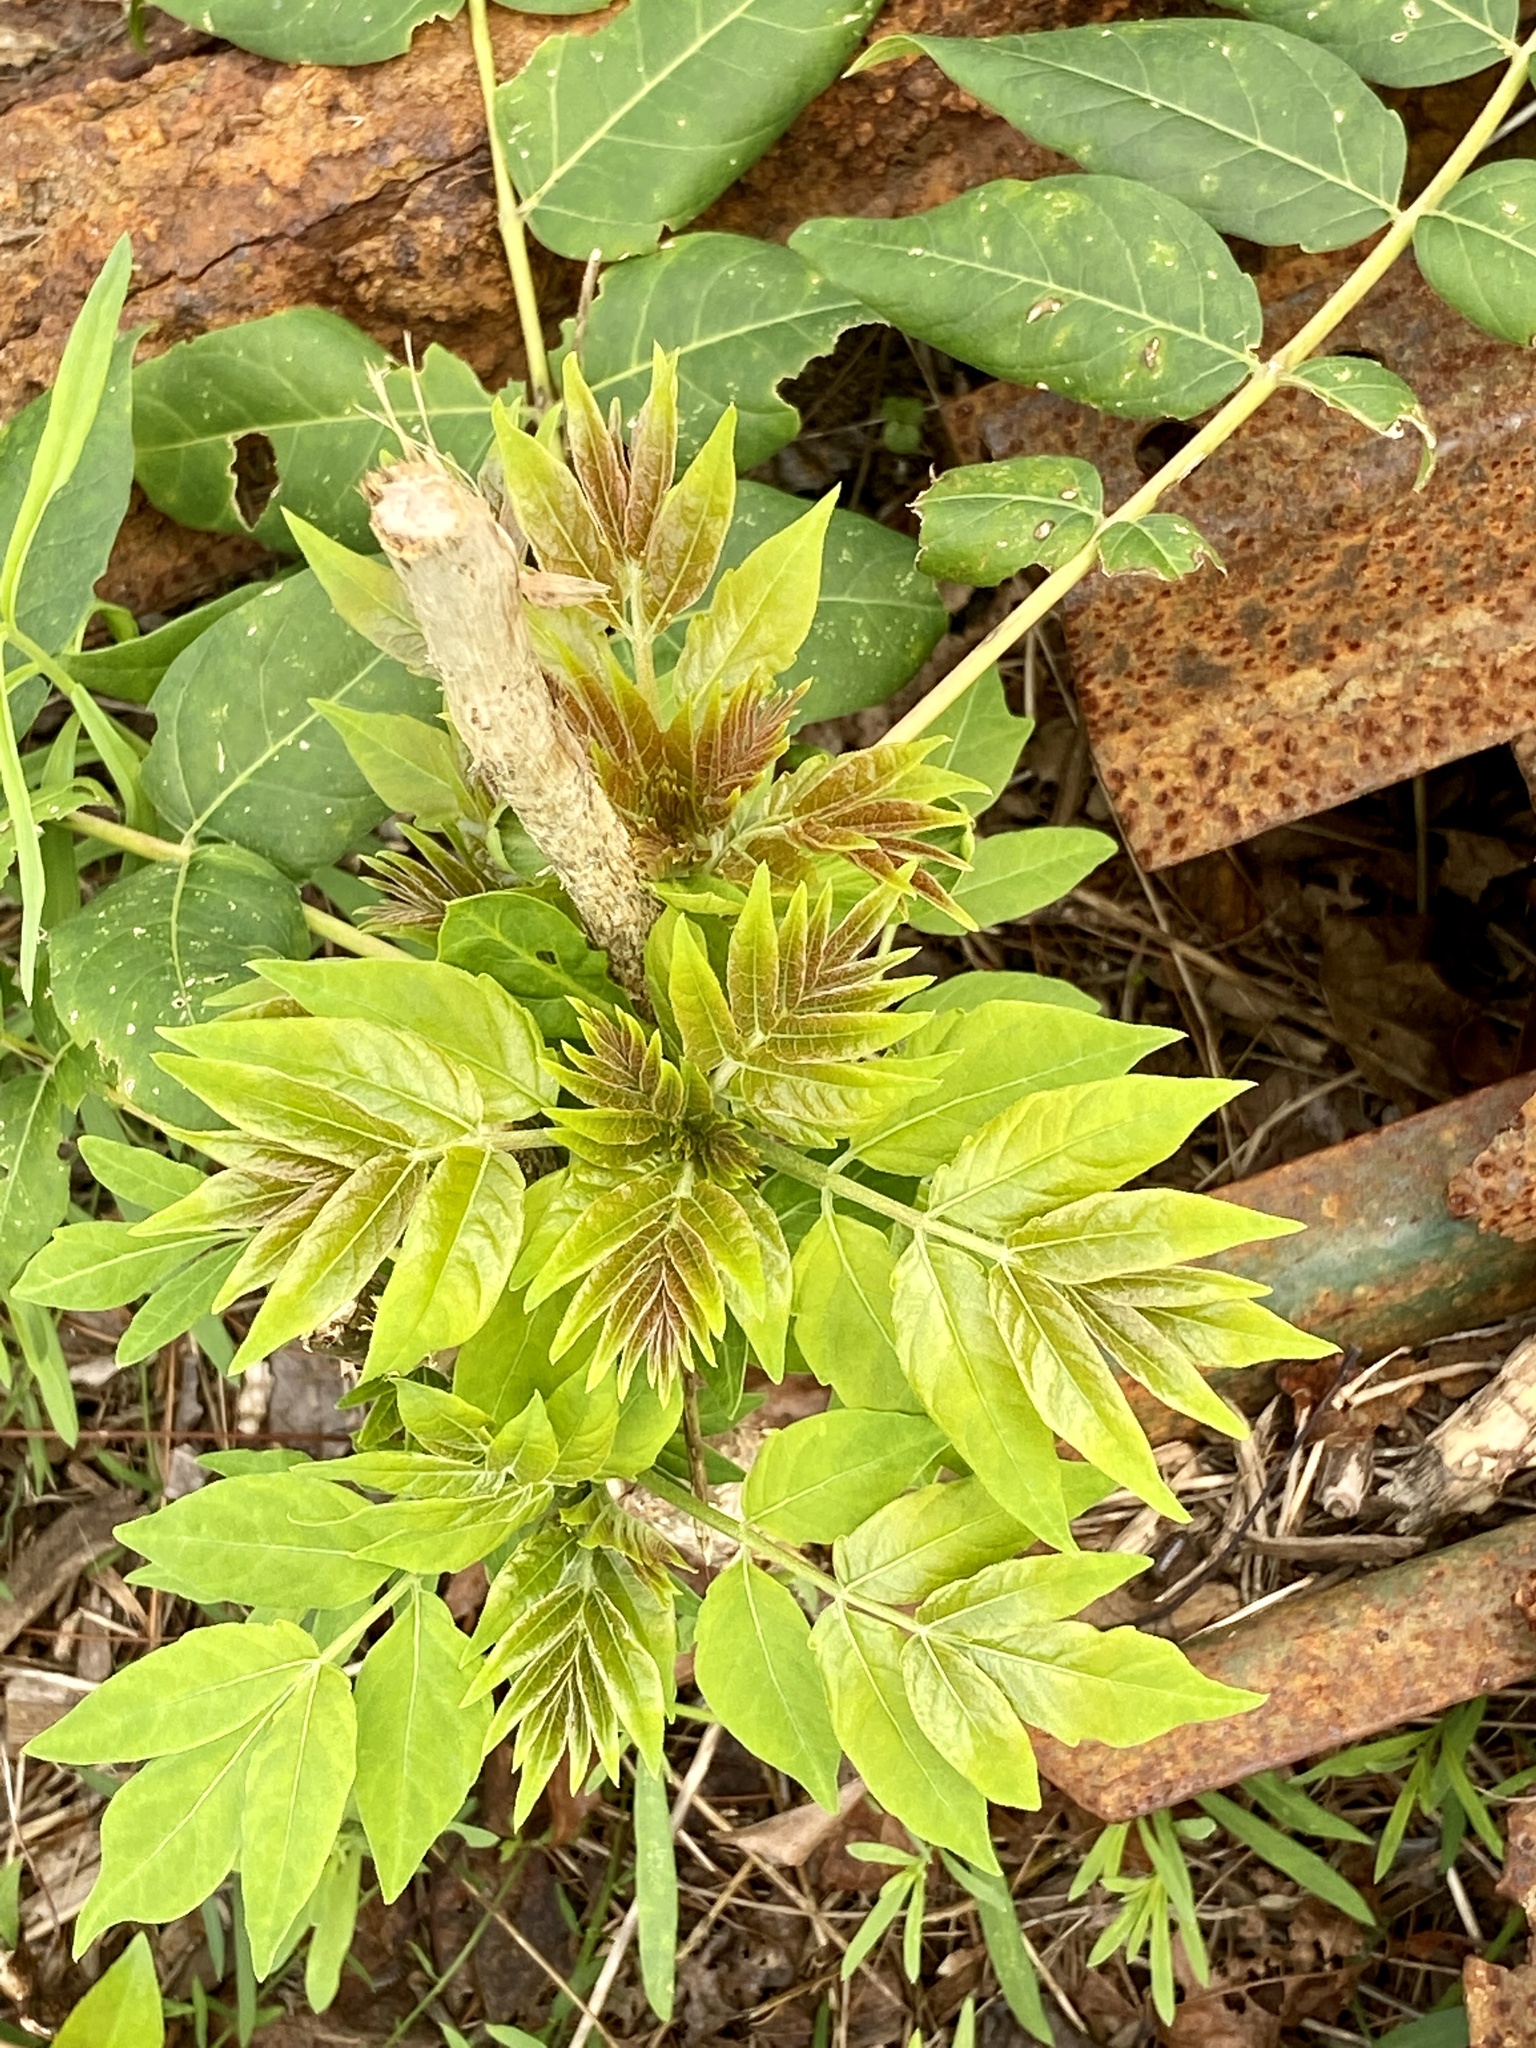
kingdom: Plantae
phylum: Tracheophyta
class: Magnoliopsida
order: Sapindales
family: Simaroubaceae
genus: Ailanthus
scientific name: Ailanthus altissima
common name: Tree-of-heaven
